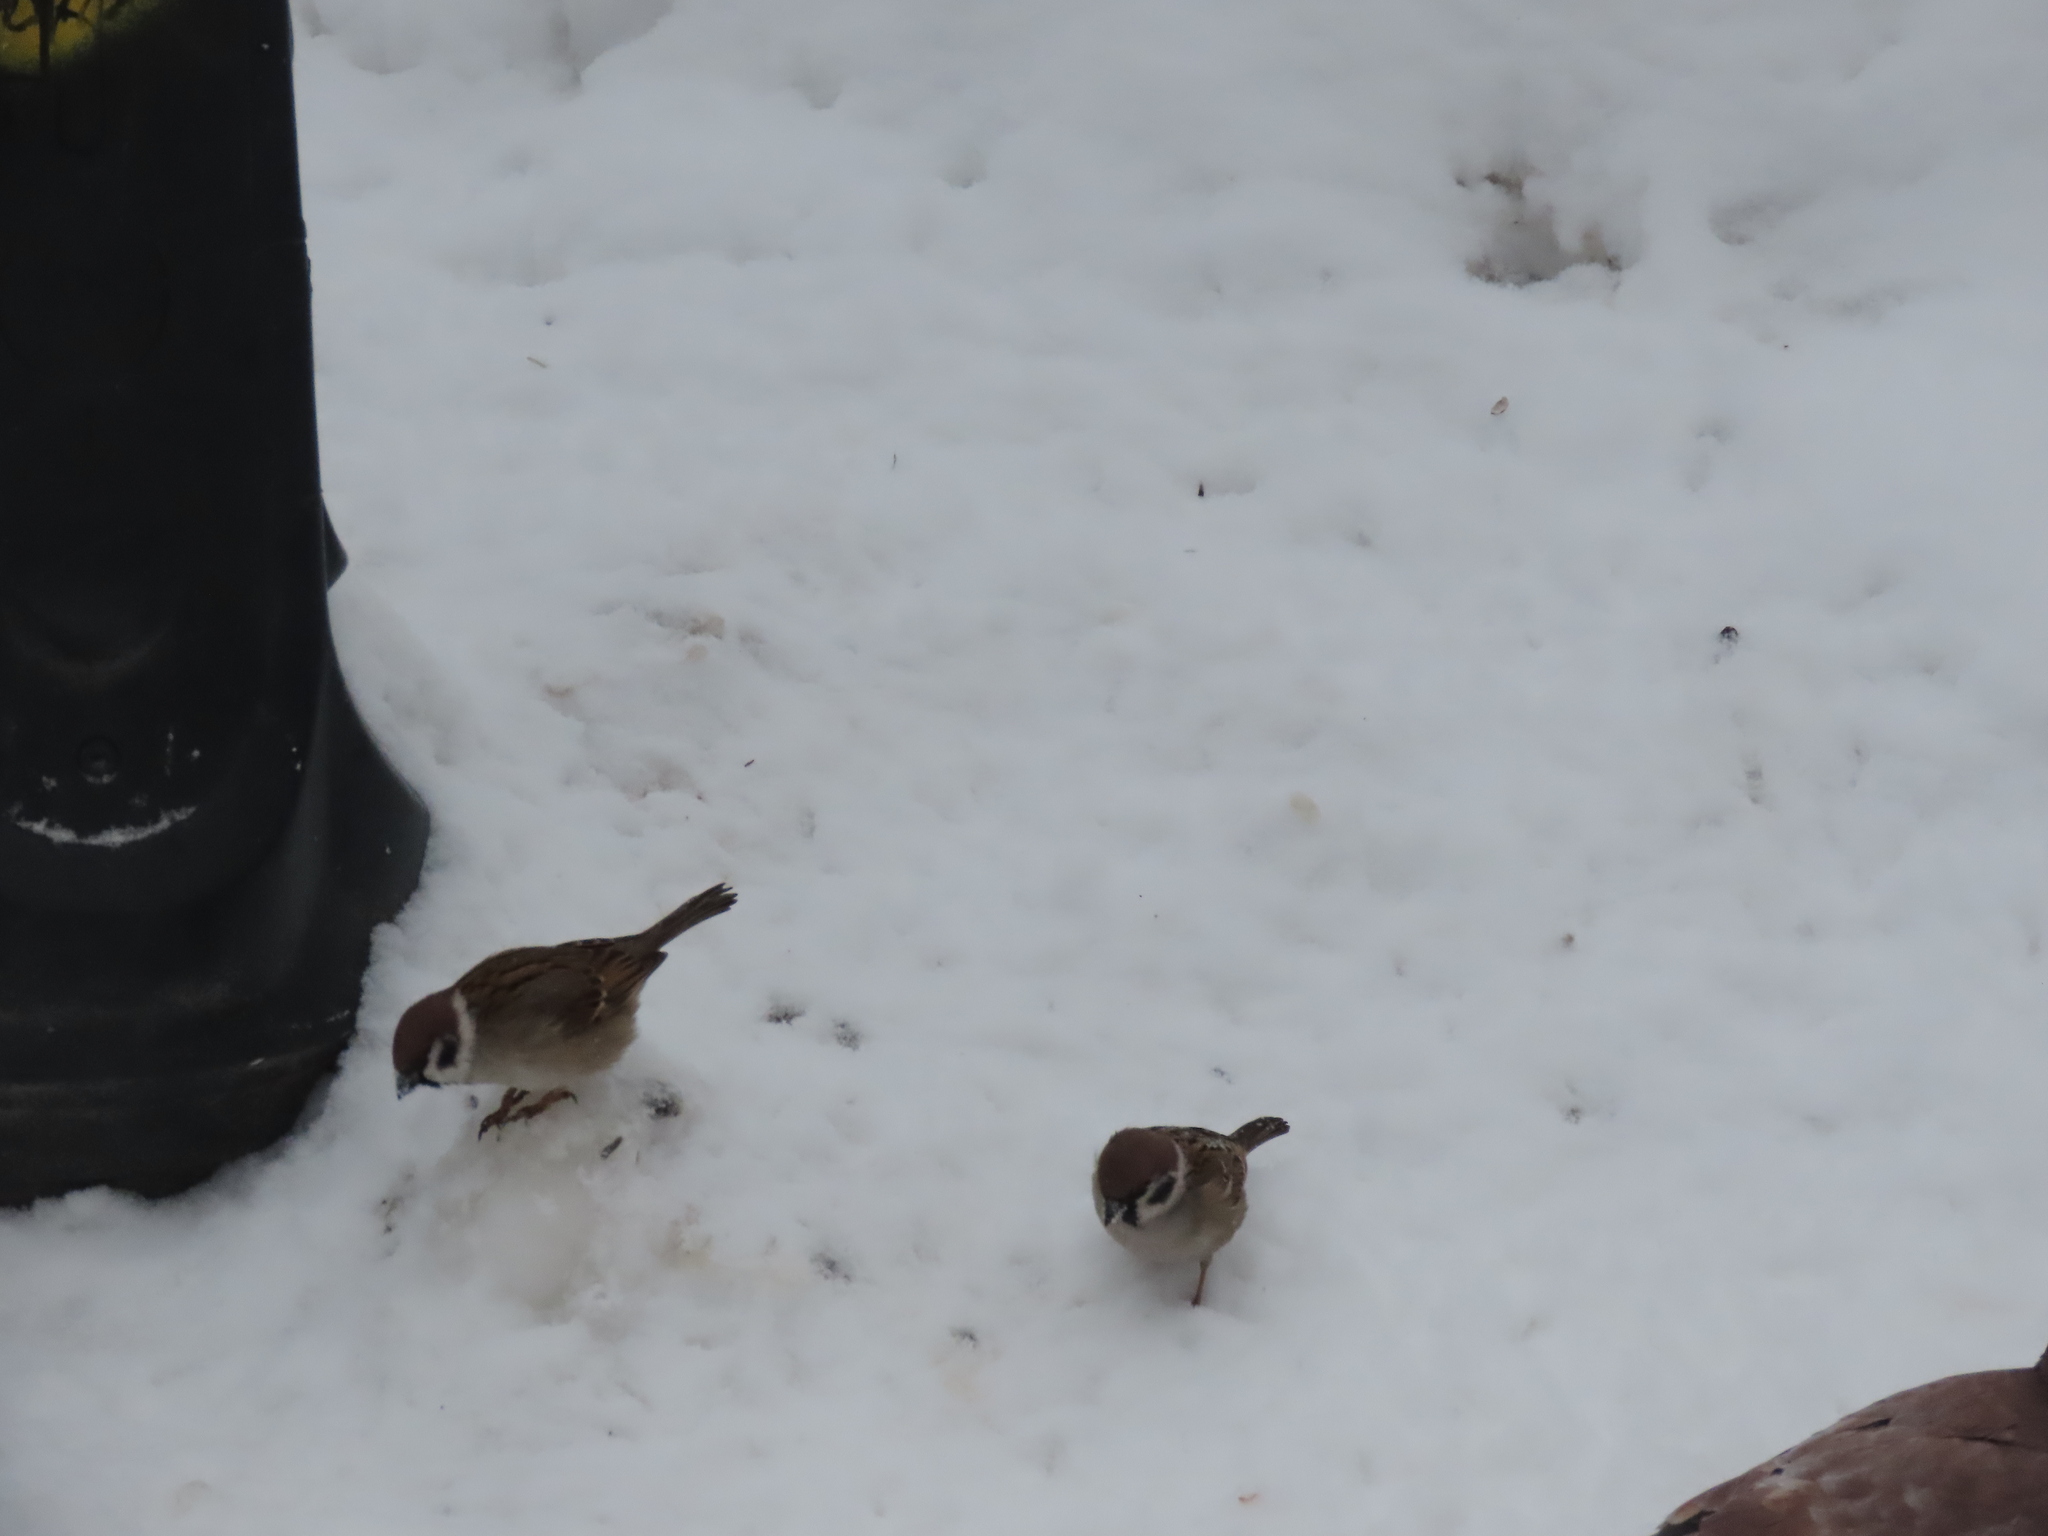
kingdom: Animalia
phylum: Chordata
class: Aves
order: Passeriformes
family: Passeridae
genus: Passer
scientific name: Passer montanus
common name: Eurasian tree sparrow
